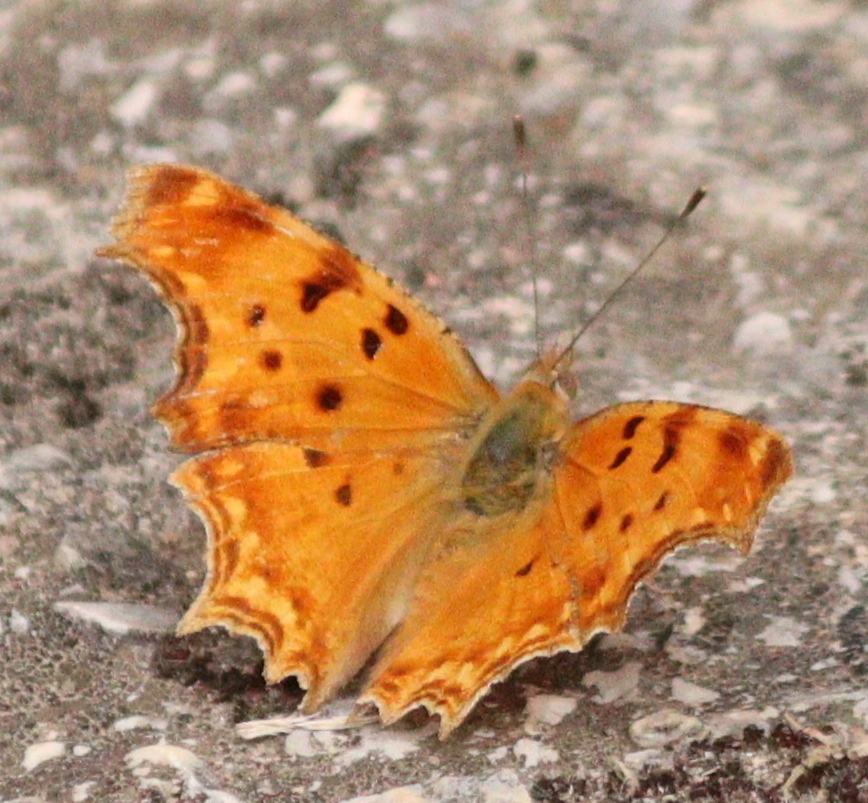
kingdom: Animalia
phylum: Arthropoda
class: Insecta
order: Lepidoptera
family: Nymphalidae
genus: Polygonia
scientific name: Polygonia egea
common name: Southern comma
